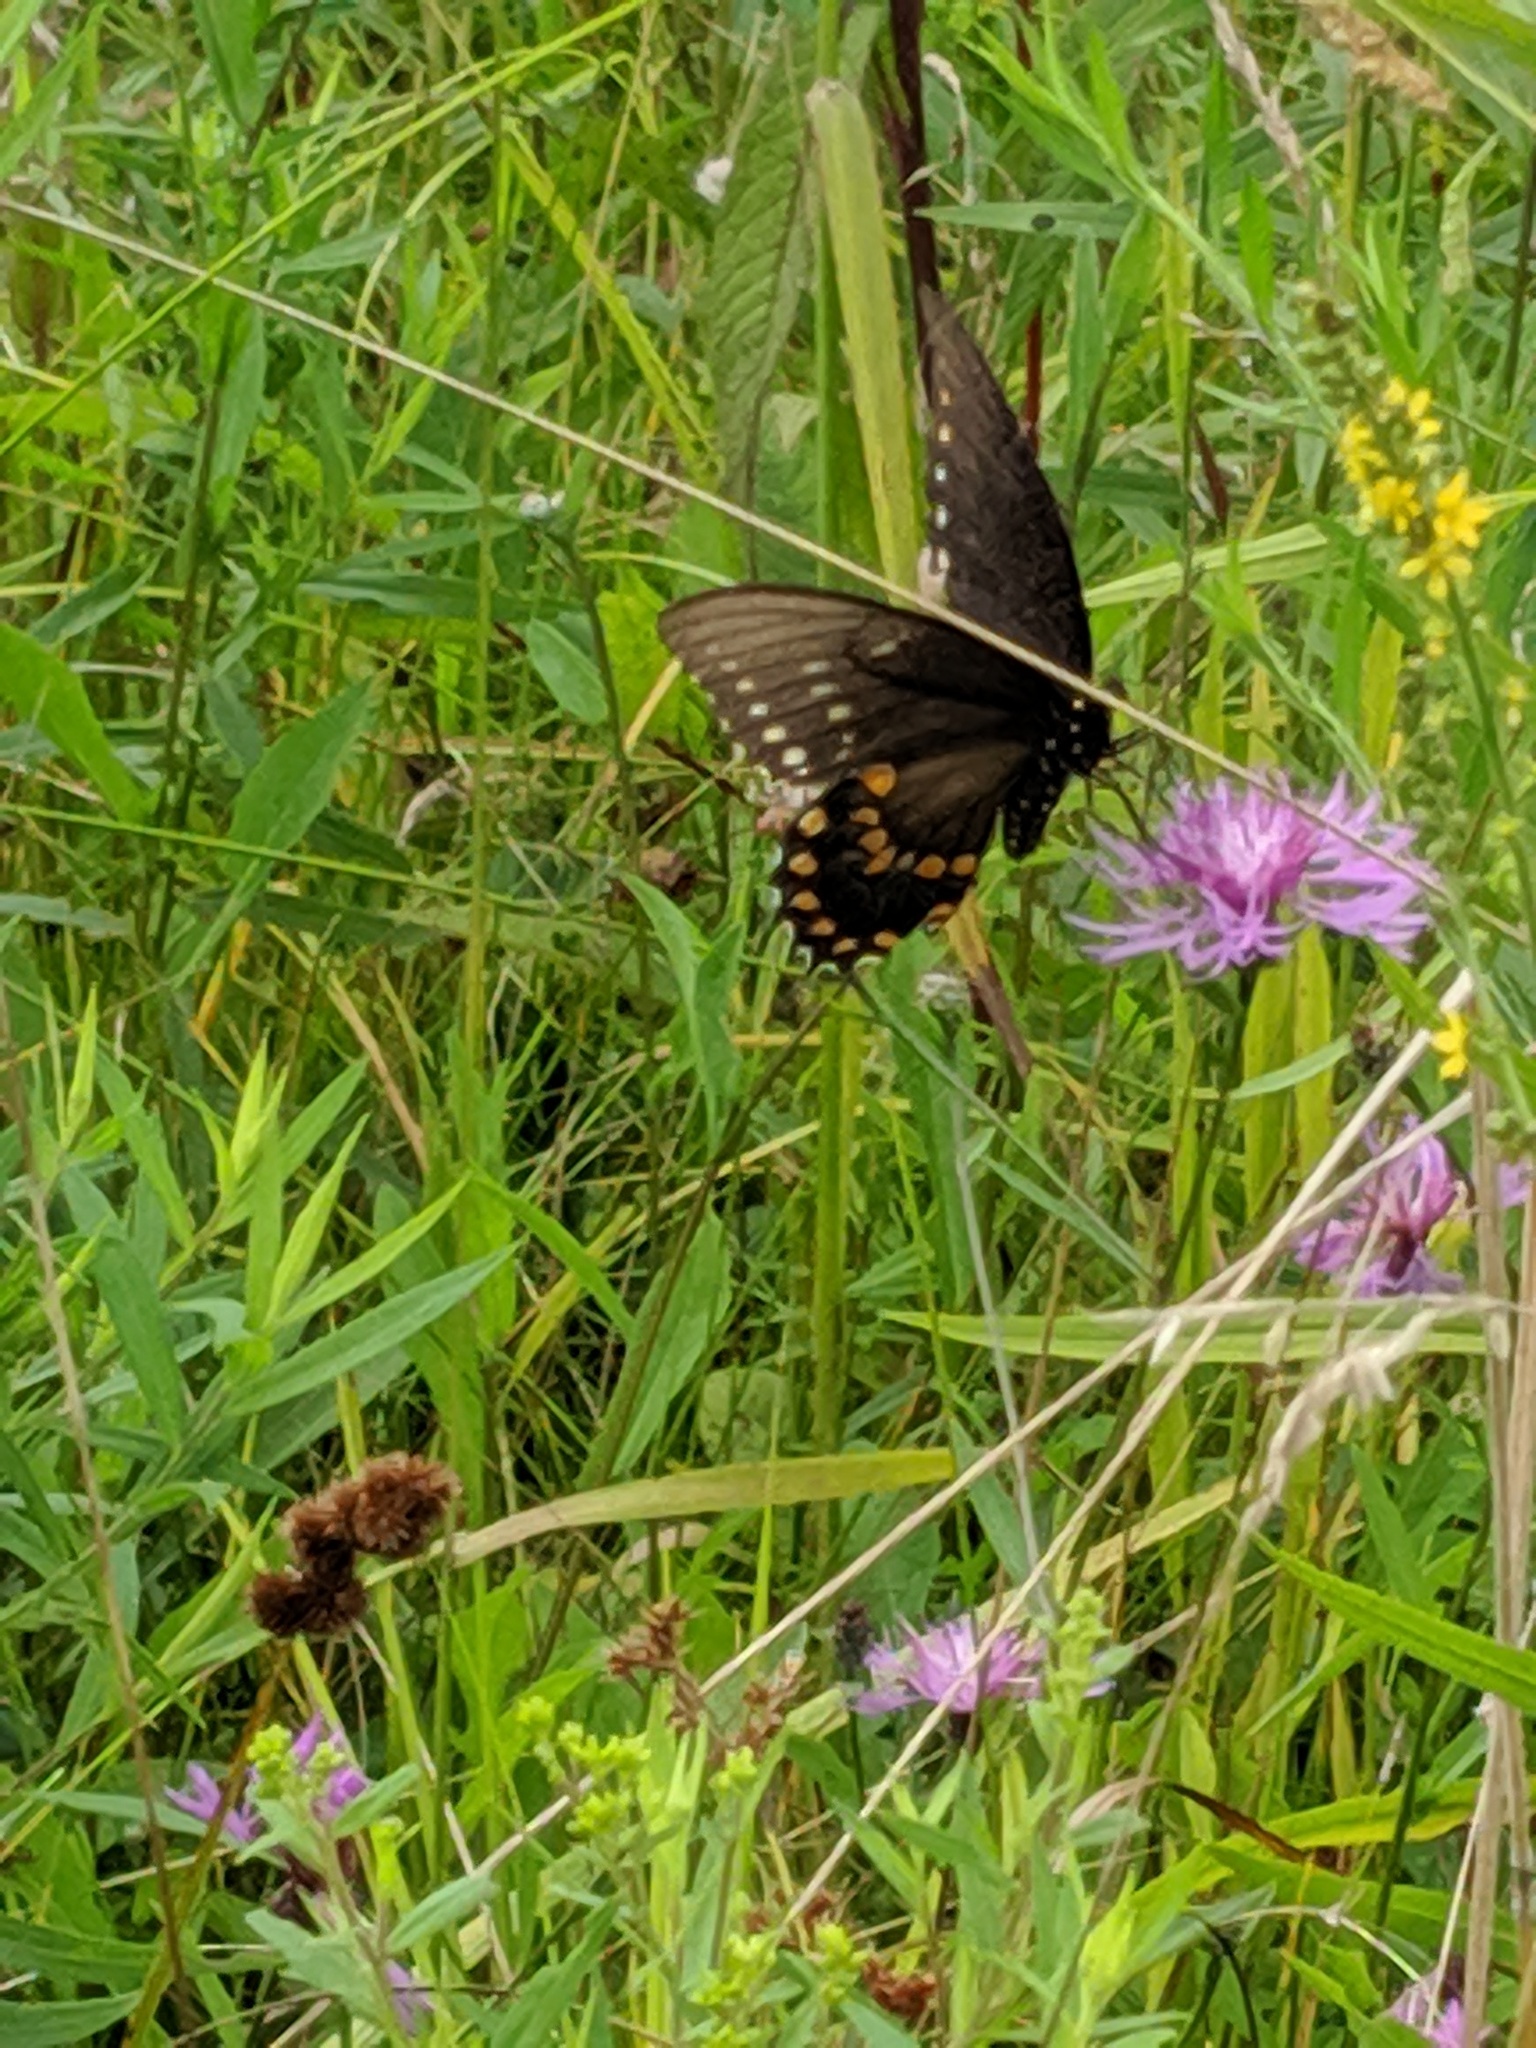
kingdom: Animalia
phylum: Arthropoda
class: Insecta
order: Lepidoptera
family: Papilionidae
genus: Papilio
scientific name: Papilio troilus
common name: Spicebush swallowtail
